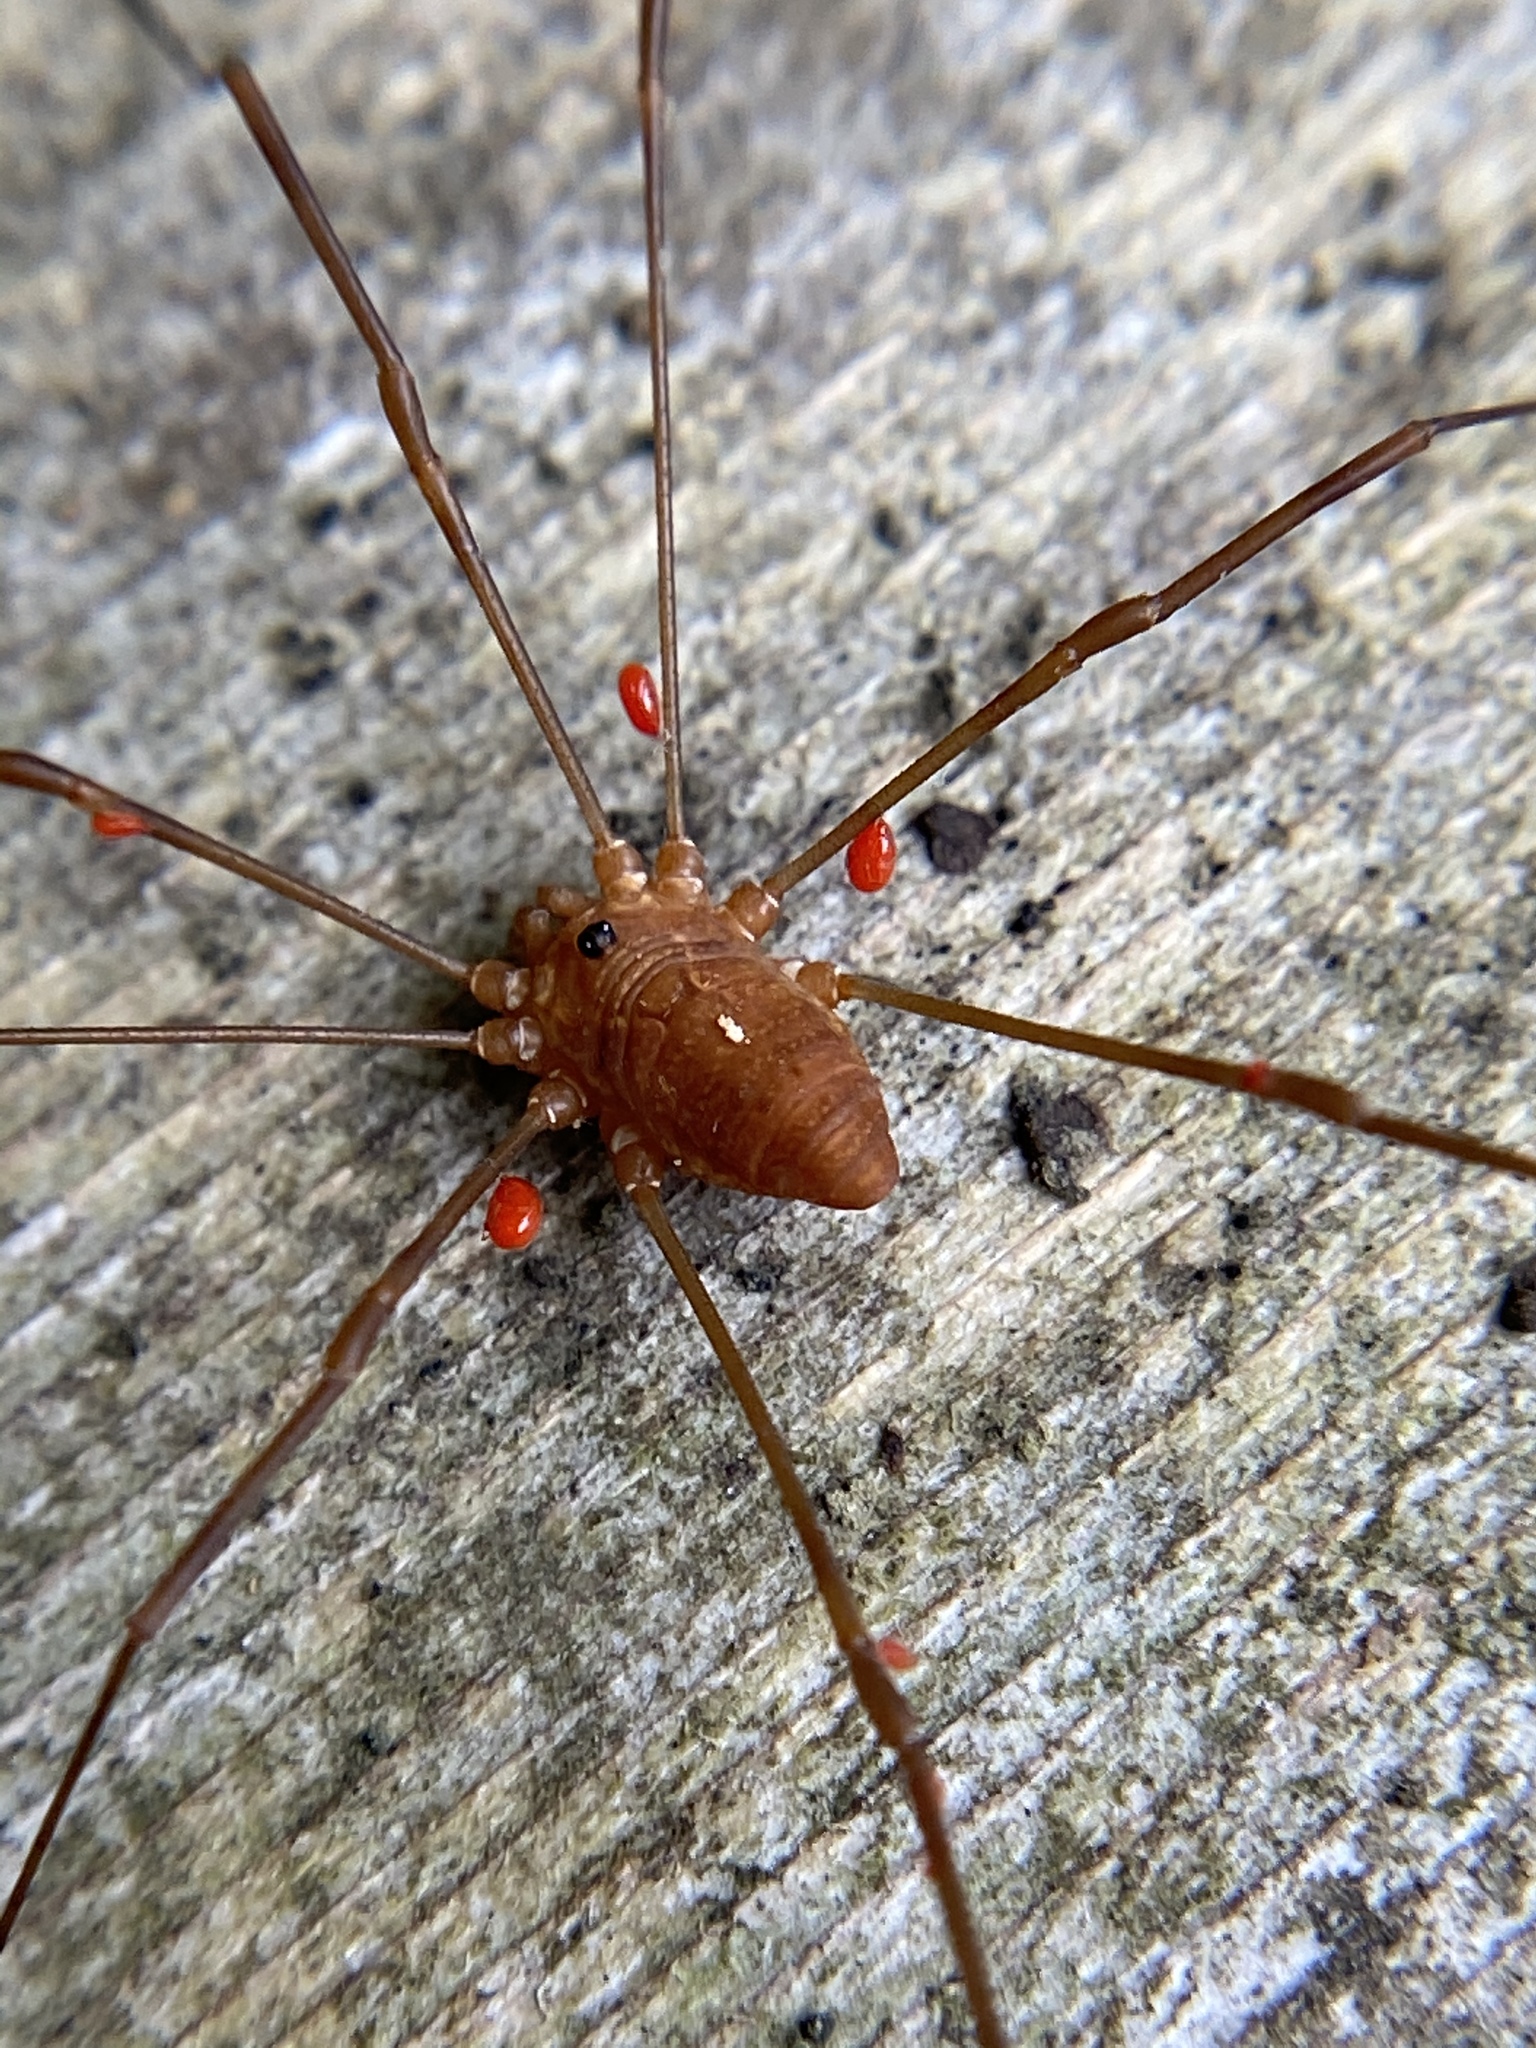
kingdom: Animalia
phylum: Arthropoda
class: Arachnida
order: Opiliones
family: Sclerosomatidae
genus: Leiobunum
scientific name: Leiobunum ventricosum
